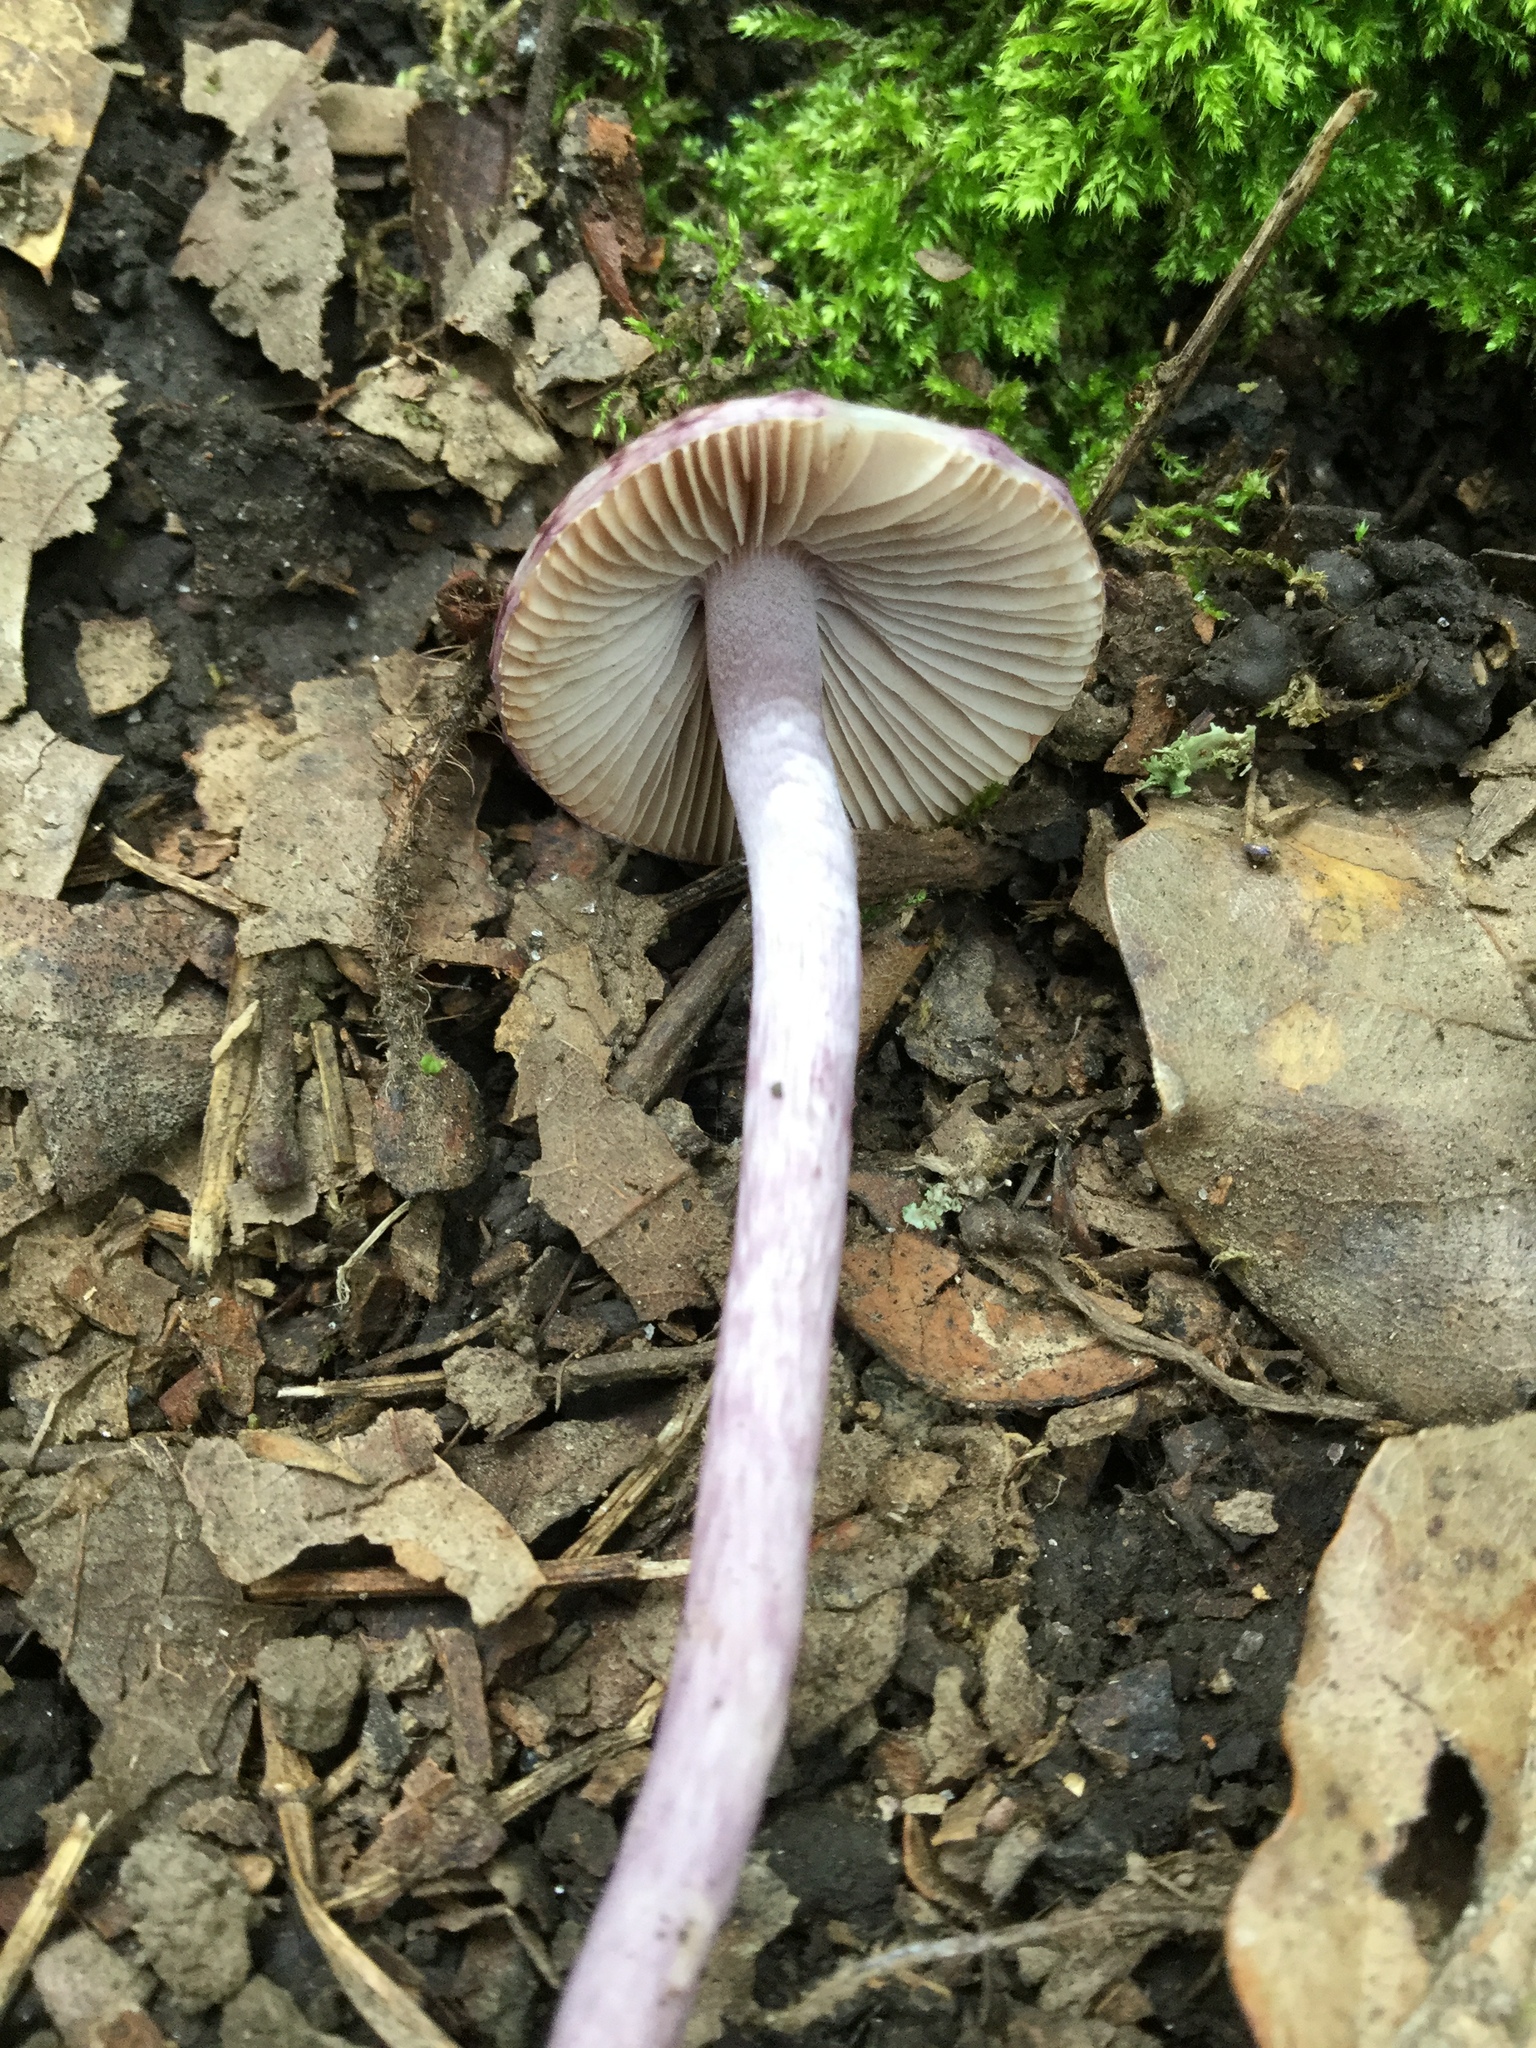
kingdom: Fungi
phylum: Basidiomycota
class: Agaricomycetes
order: Agaricales
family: Inocybaceae
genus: Inocybe
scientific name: Inocybe geophylla
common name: White fibrecap
